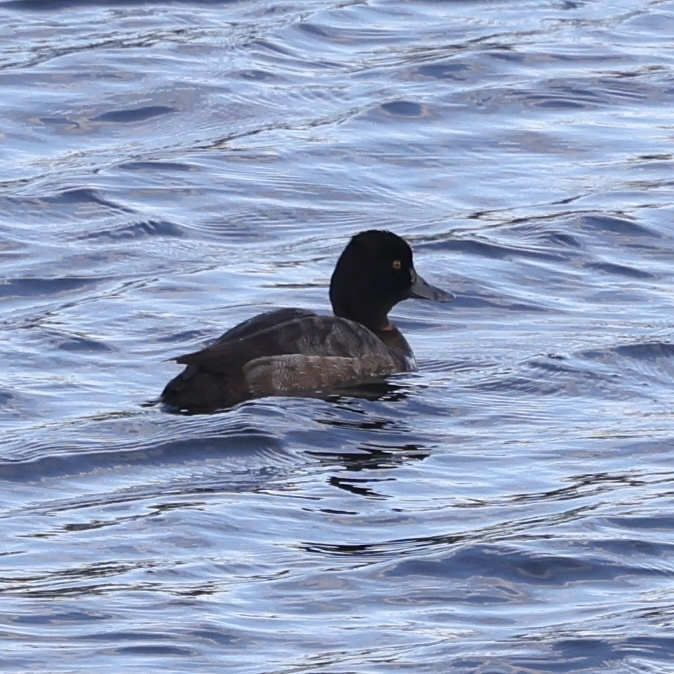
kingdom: Animalia
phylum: Chordata
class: Aves
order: Anseriformes
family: Anatidae
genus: Aythya
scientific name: Aythya affinis
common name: Lesser scaup
